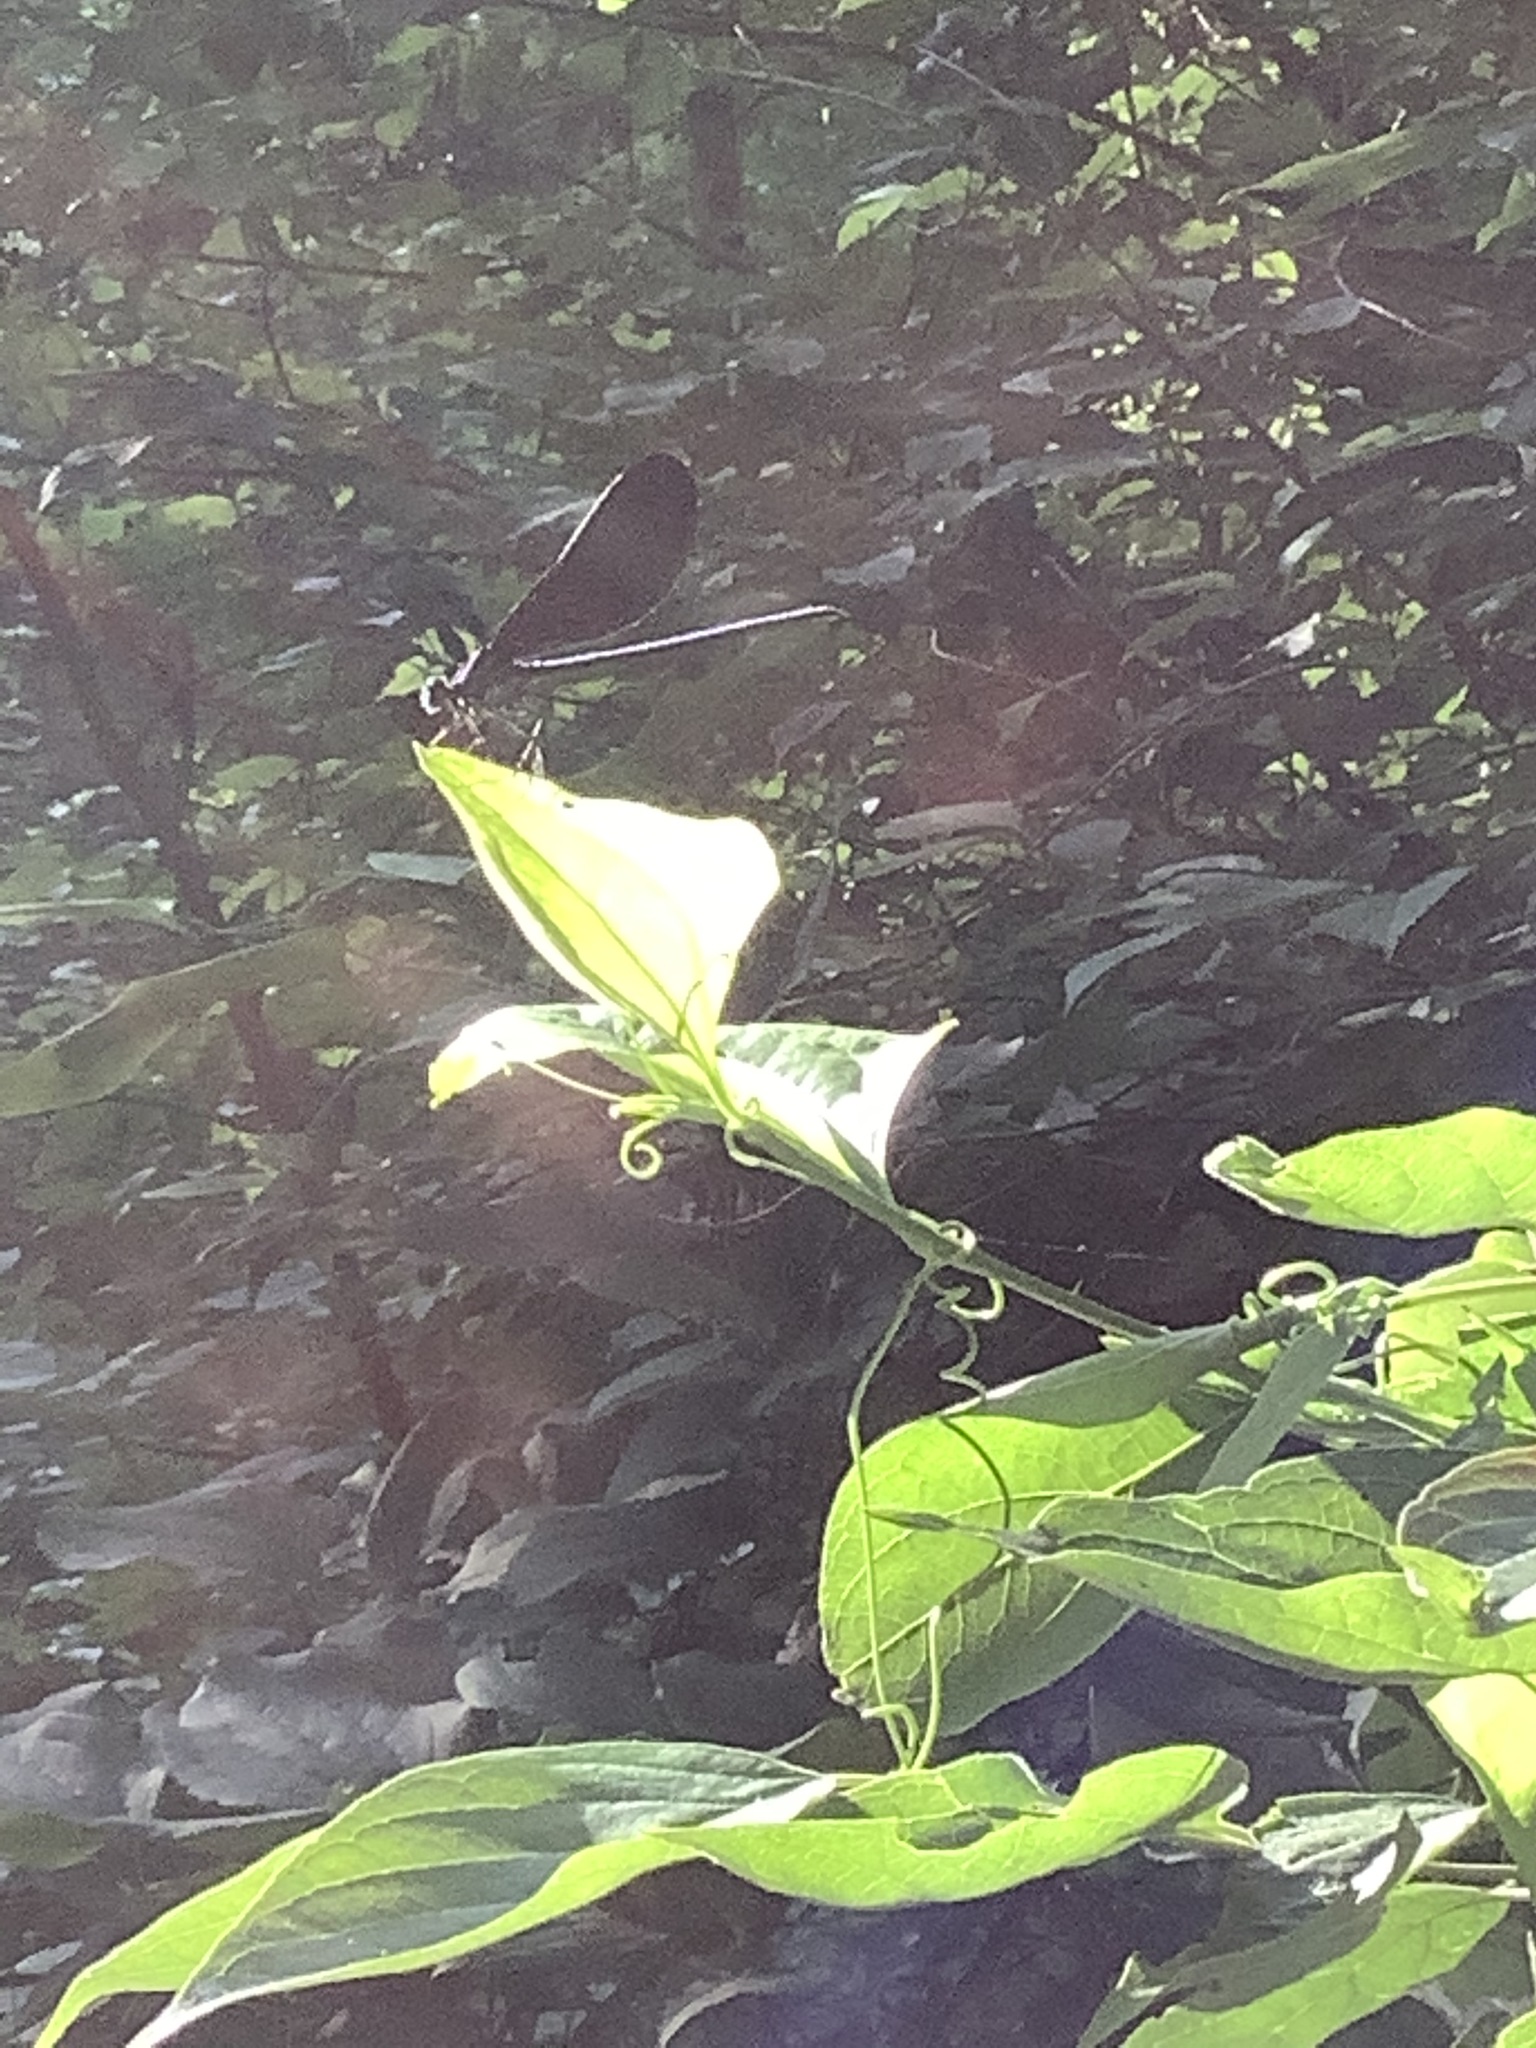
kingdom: Animalia
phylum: Arthropoda
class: Insecta
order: Odonata
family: Calopterygidae
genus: Calopteryx
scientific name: Calopteryx maculata
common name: Ebony jewelwing
